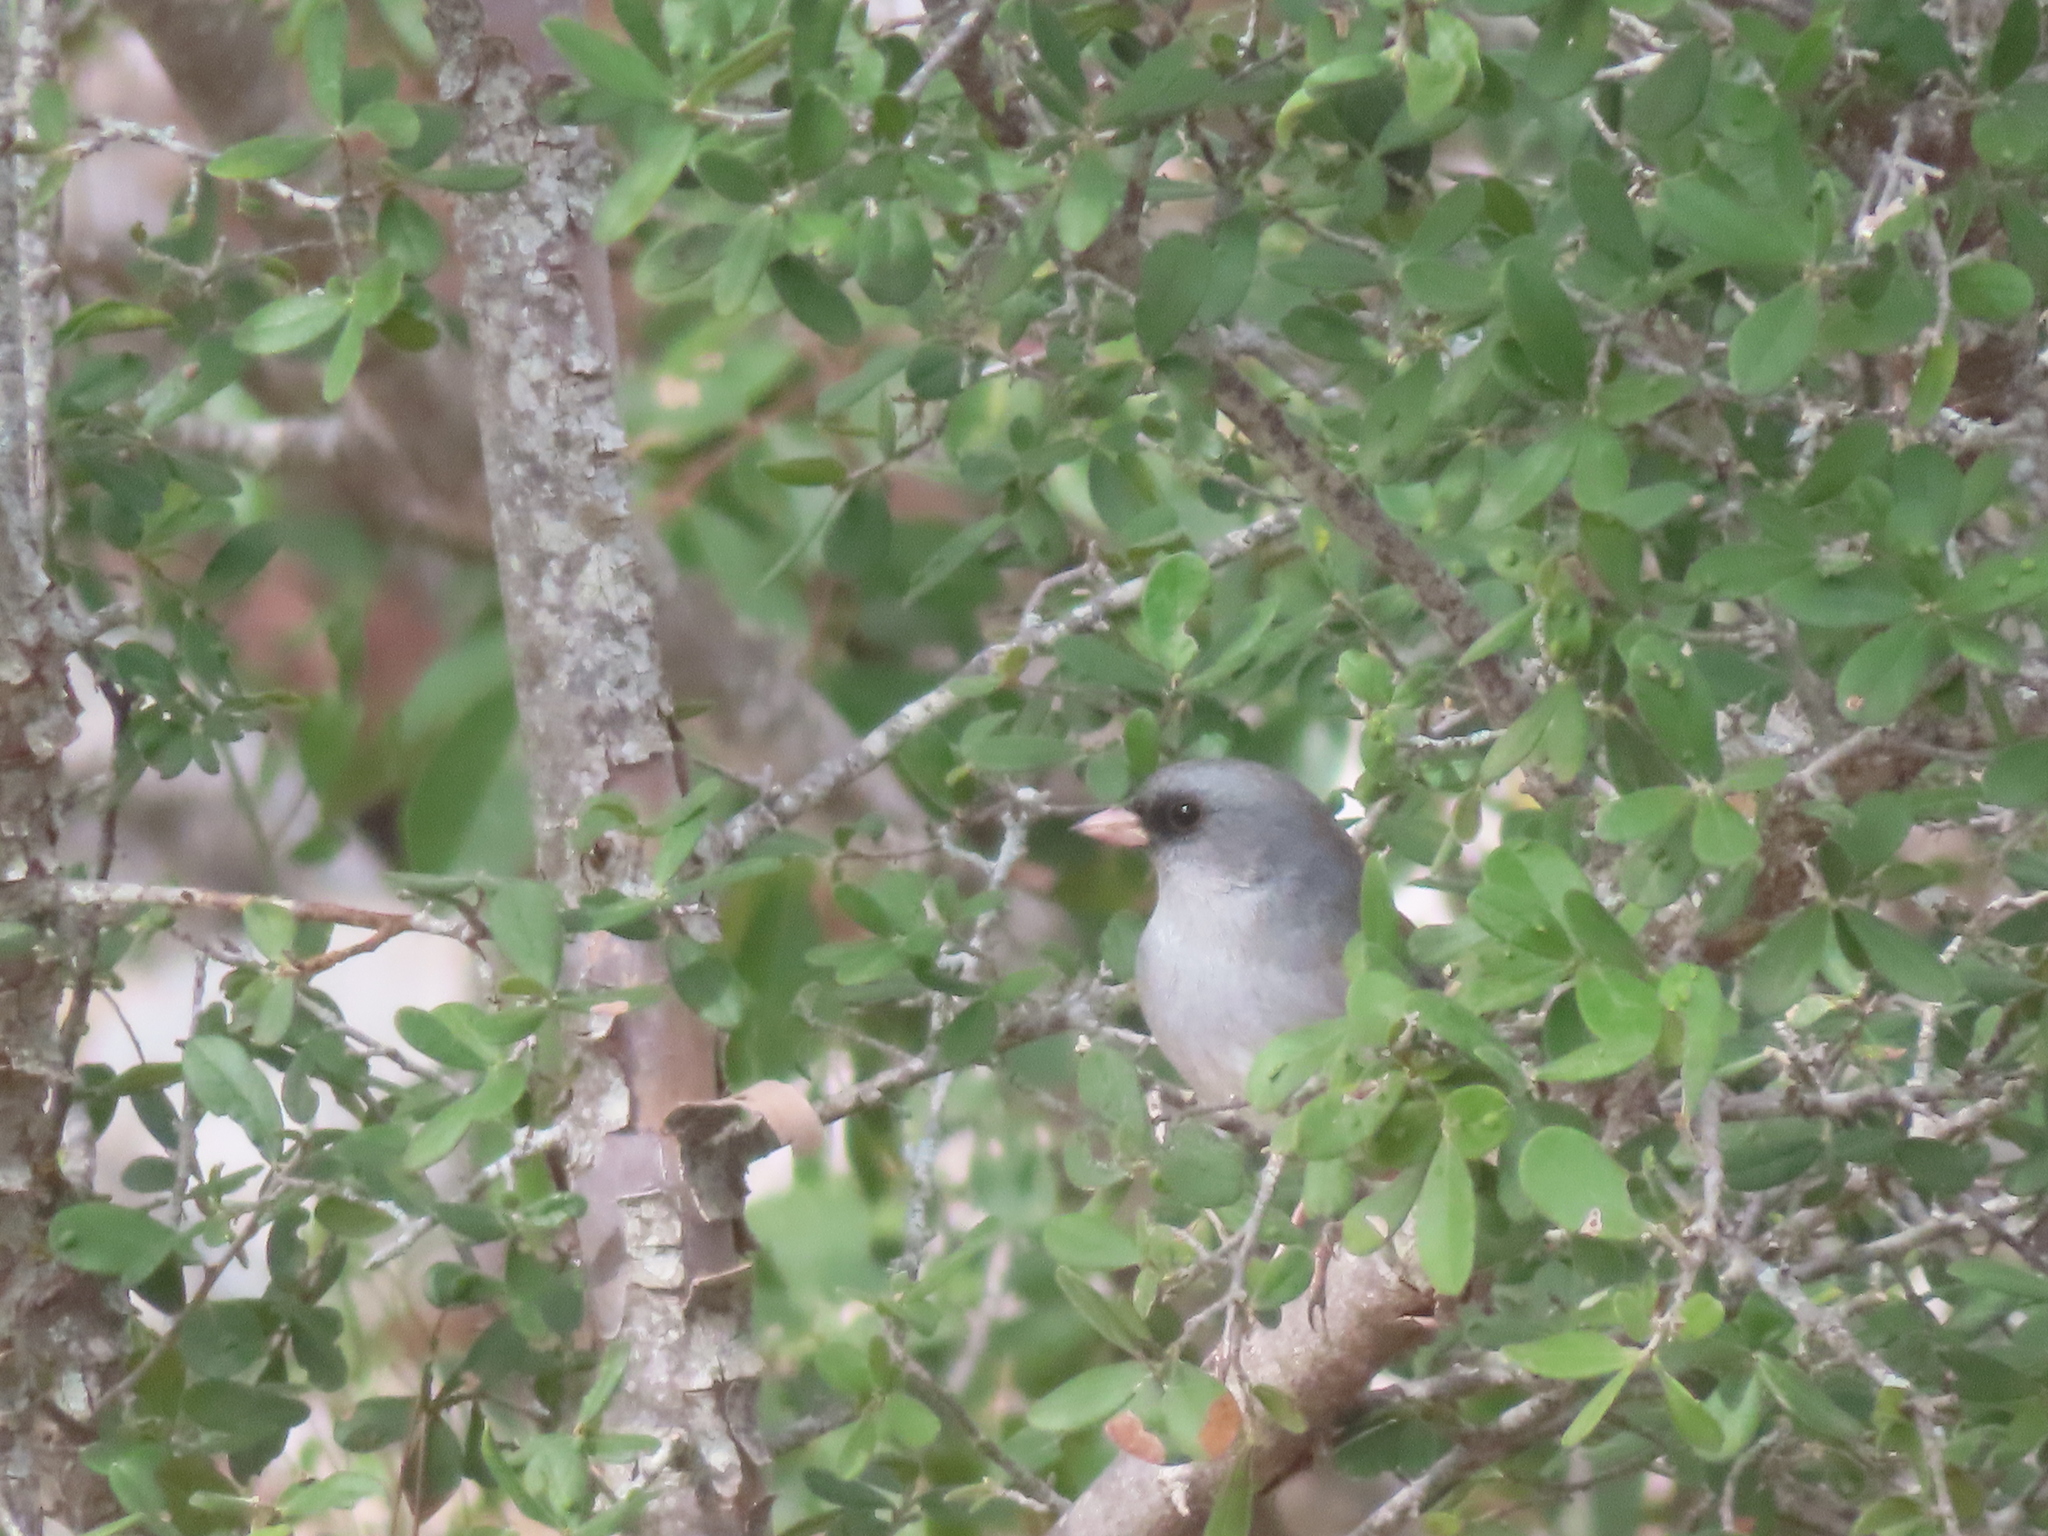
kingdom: Animalia
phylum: Chordata
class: Aves
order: Passeriformes
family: Passerellidae
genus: Junco
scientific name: Junco hyemalis
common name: Dark-eyed junco
